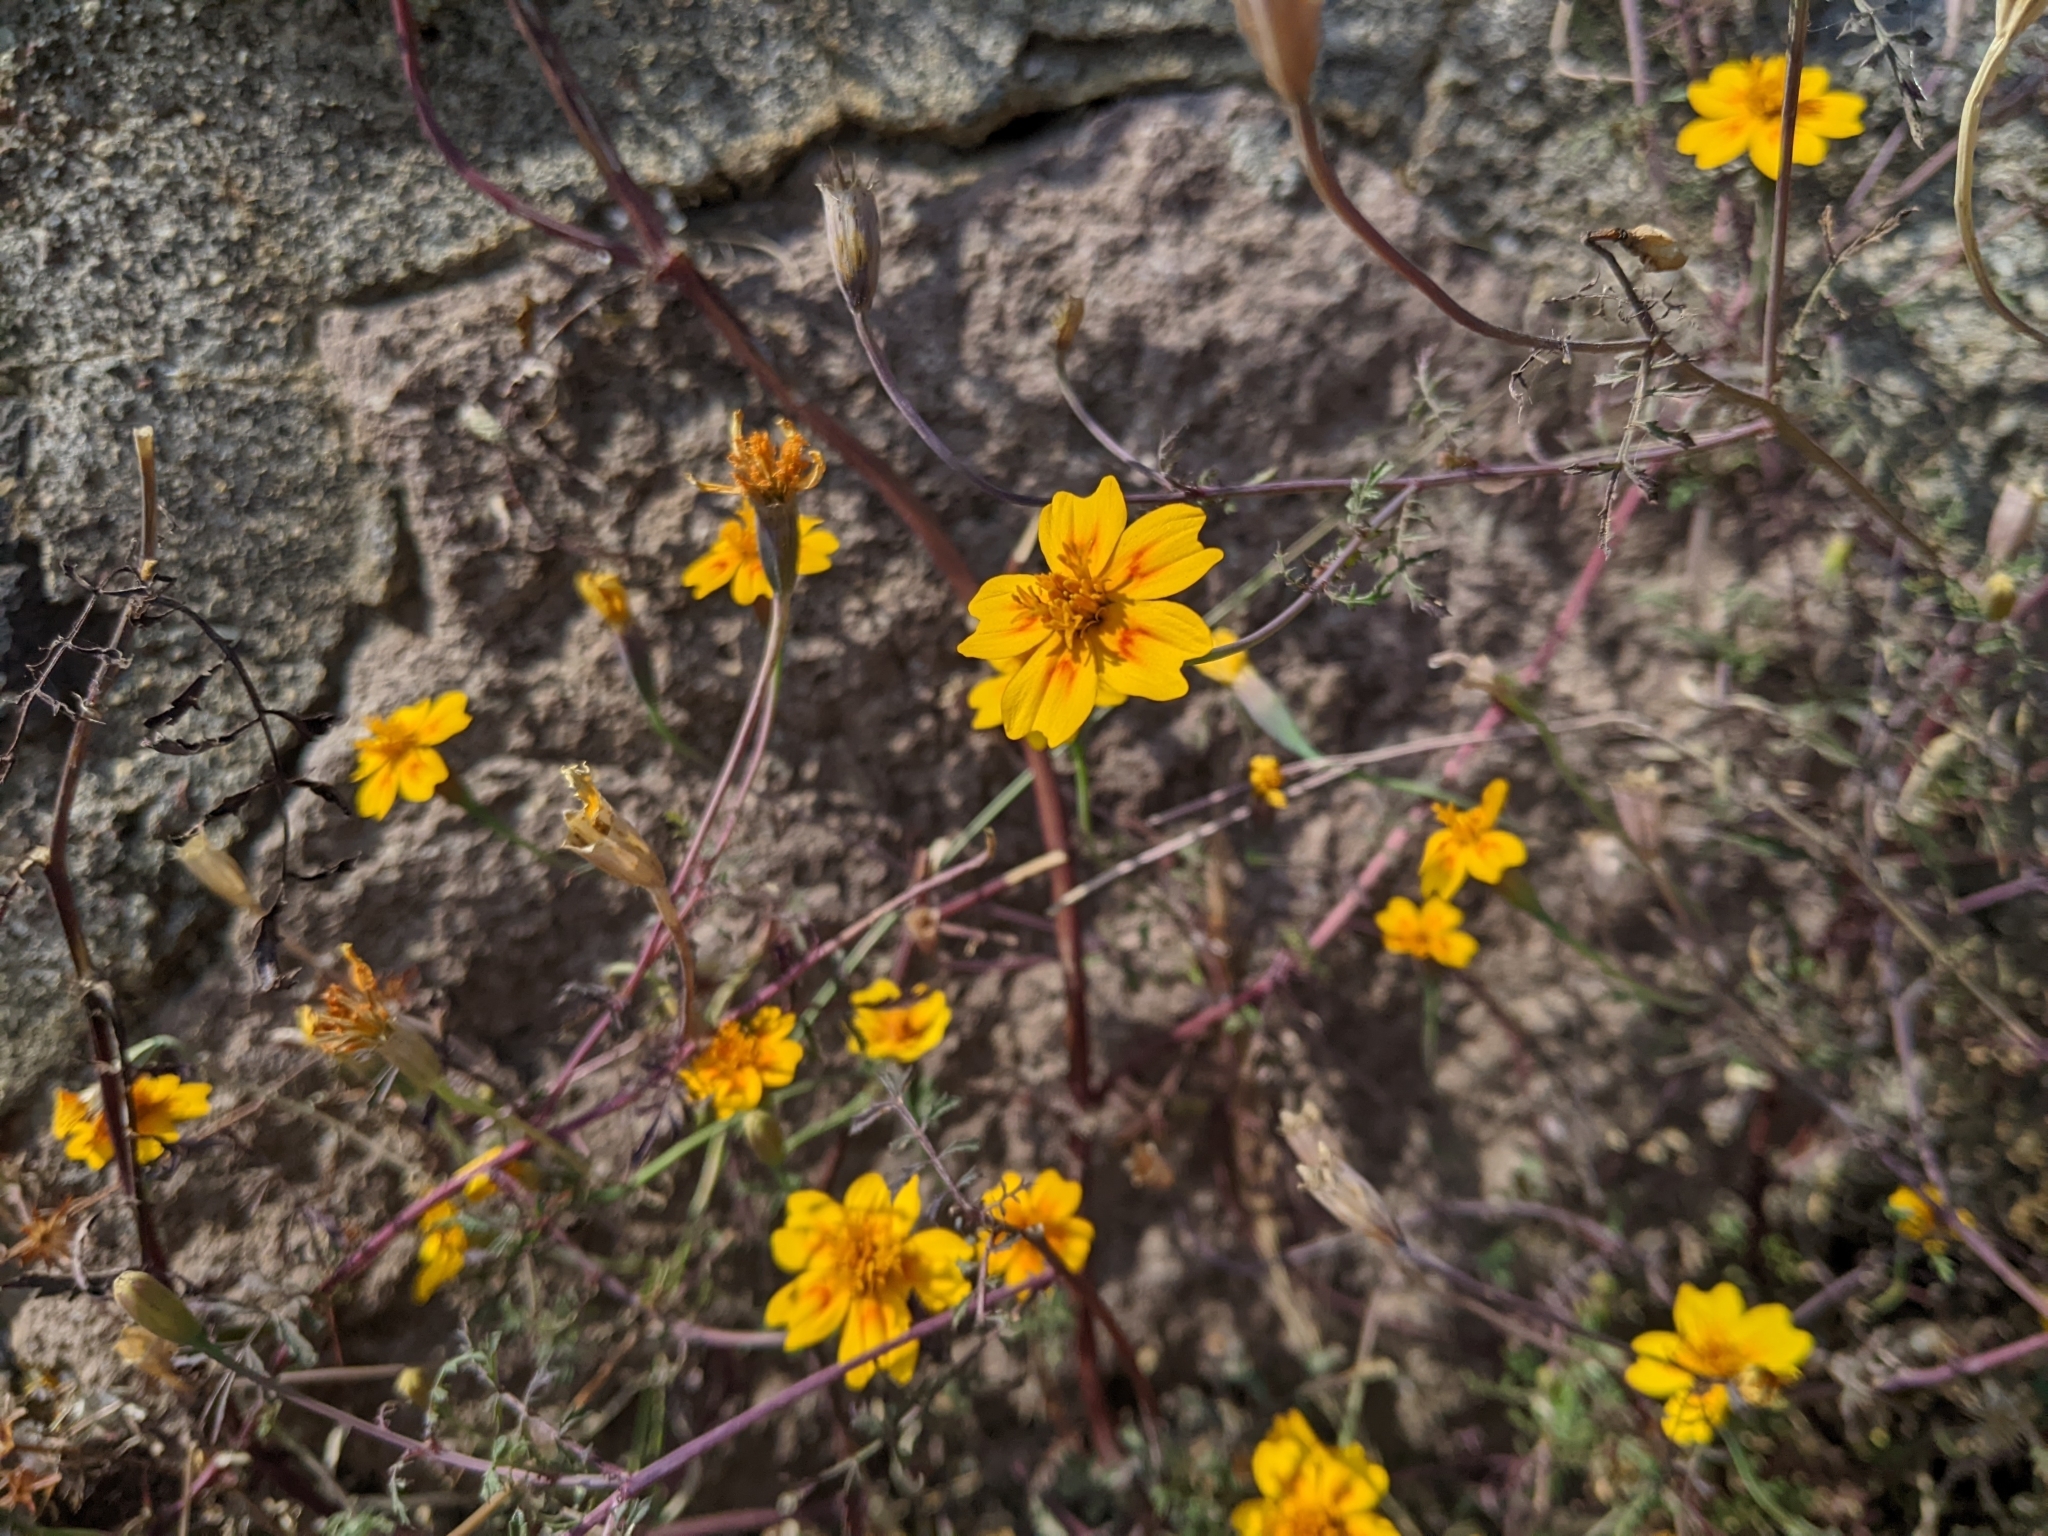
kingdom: Plantae
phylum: Tracheophyta
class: Magnoliopsida
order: Asterales
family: Asteraceae
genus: Tagetes
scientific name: Tagetes lunulata
